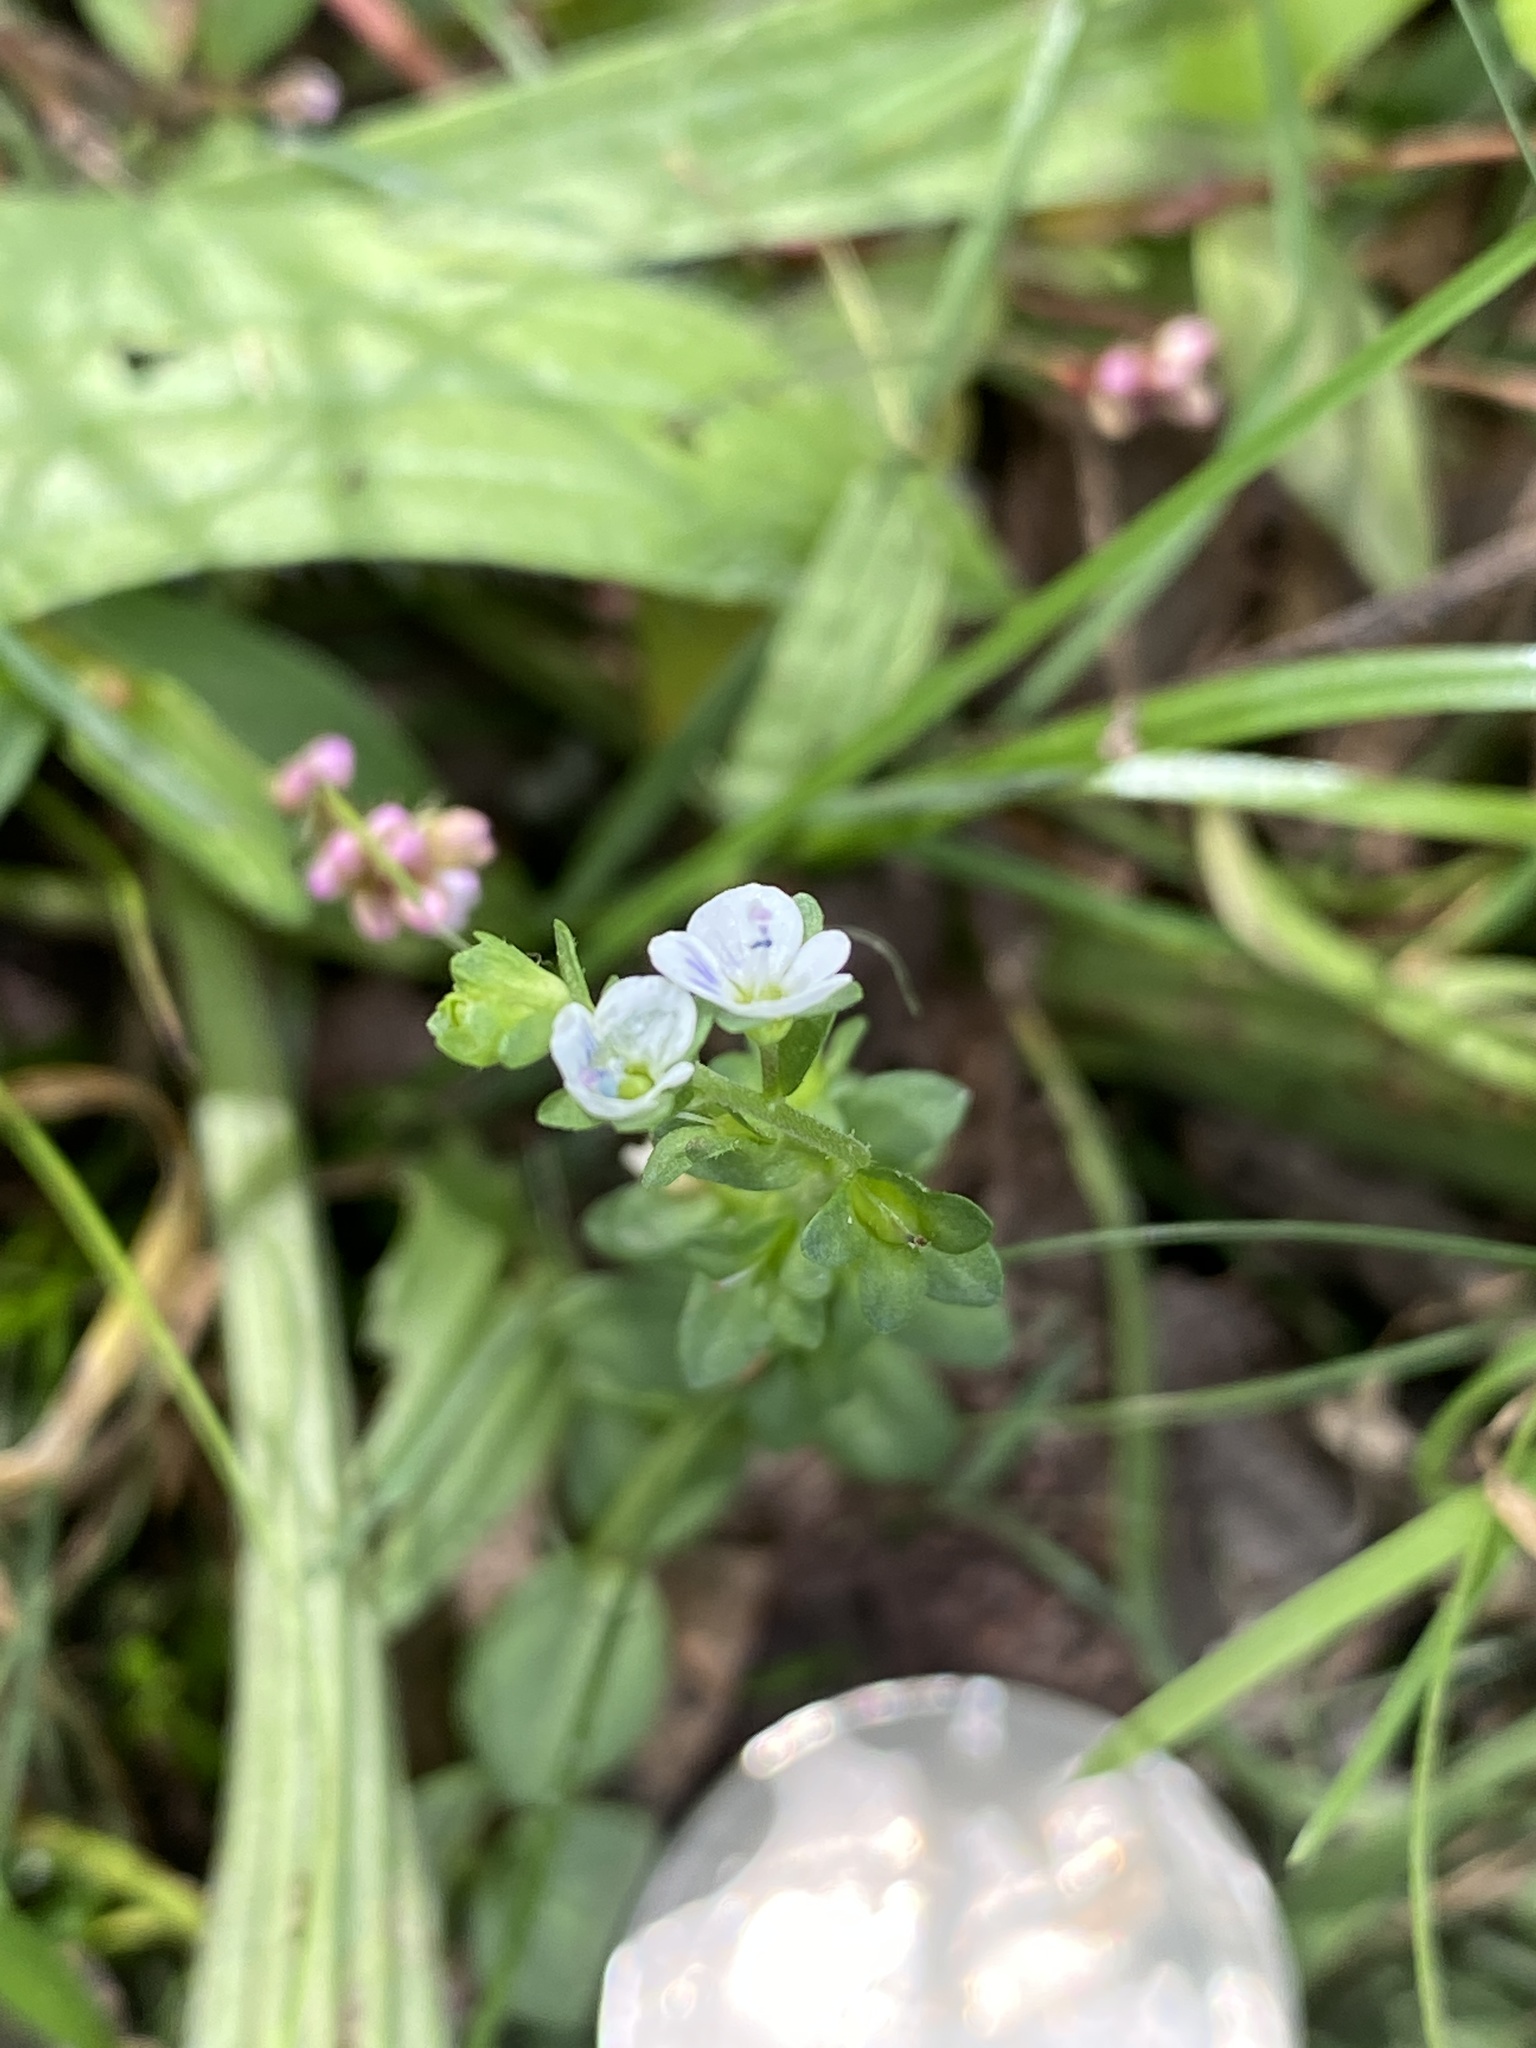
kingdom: Plantae
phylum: Tracheophyta
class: Magnoliopsida
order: Lamiales
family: Plantaginaceae
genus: Veronica
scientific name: Veronica serpyllifolia
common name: Thyme-leaved speedwell
